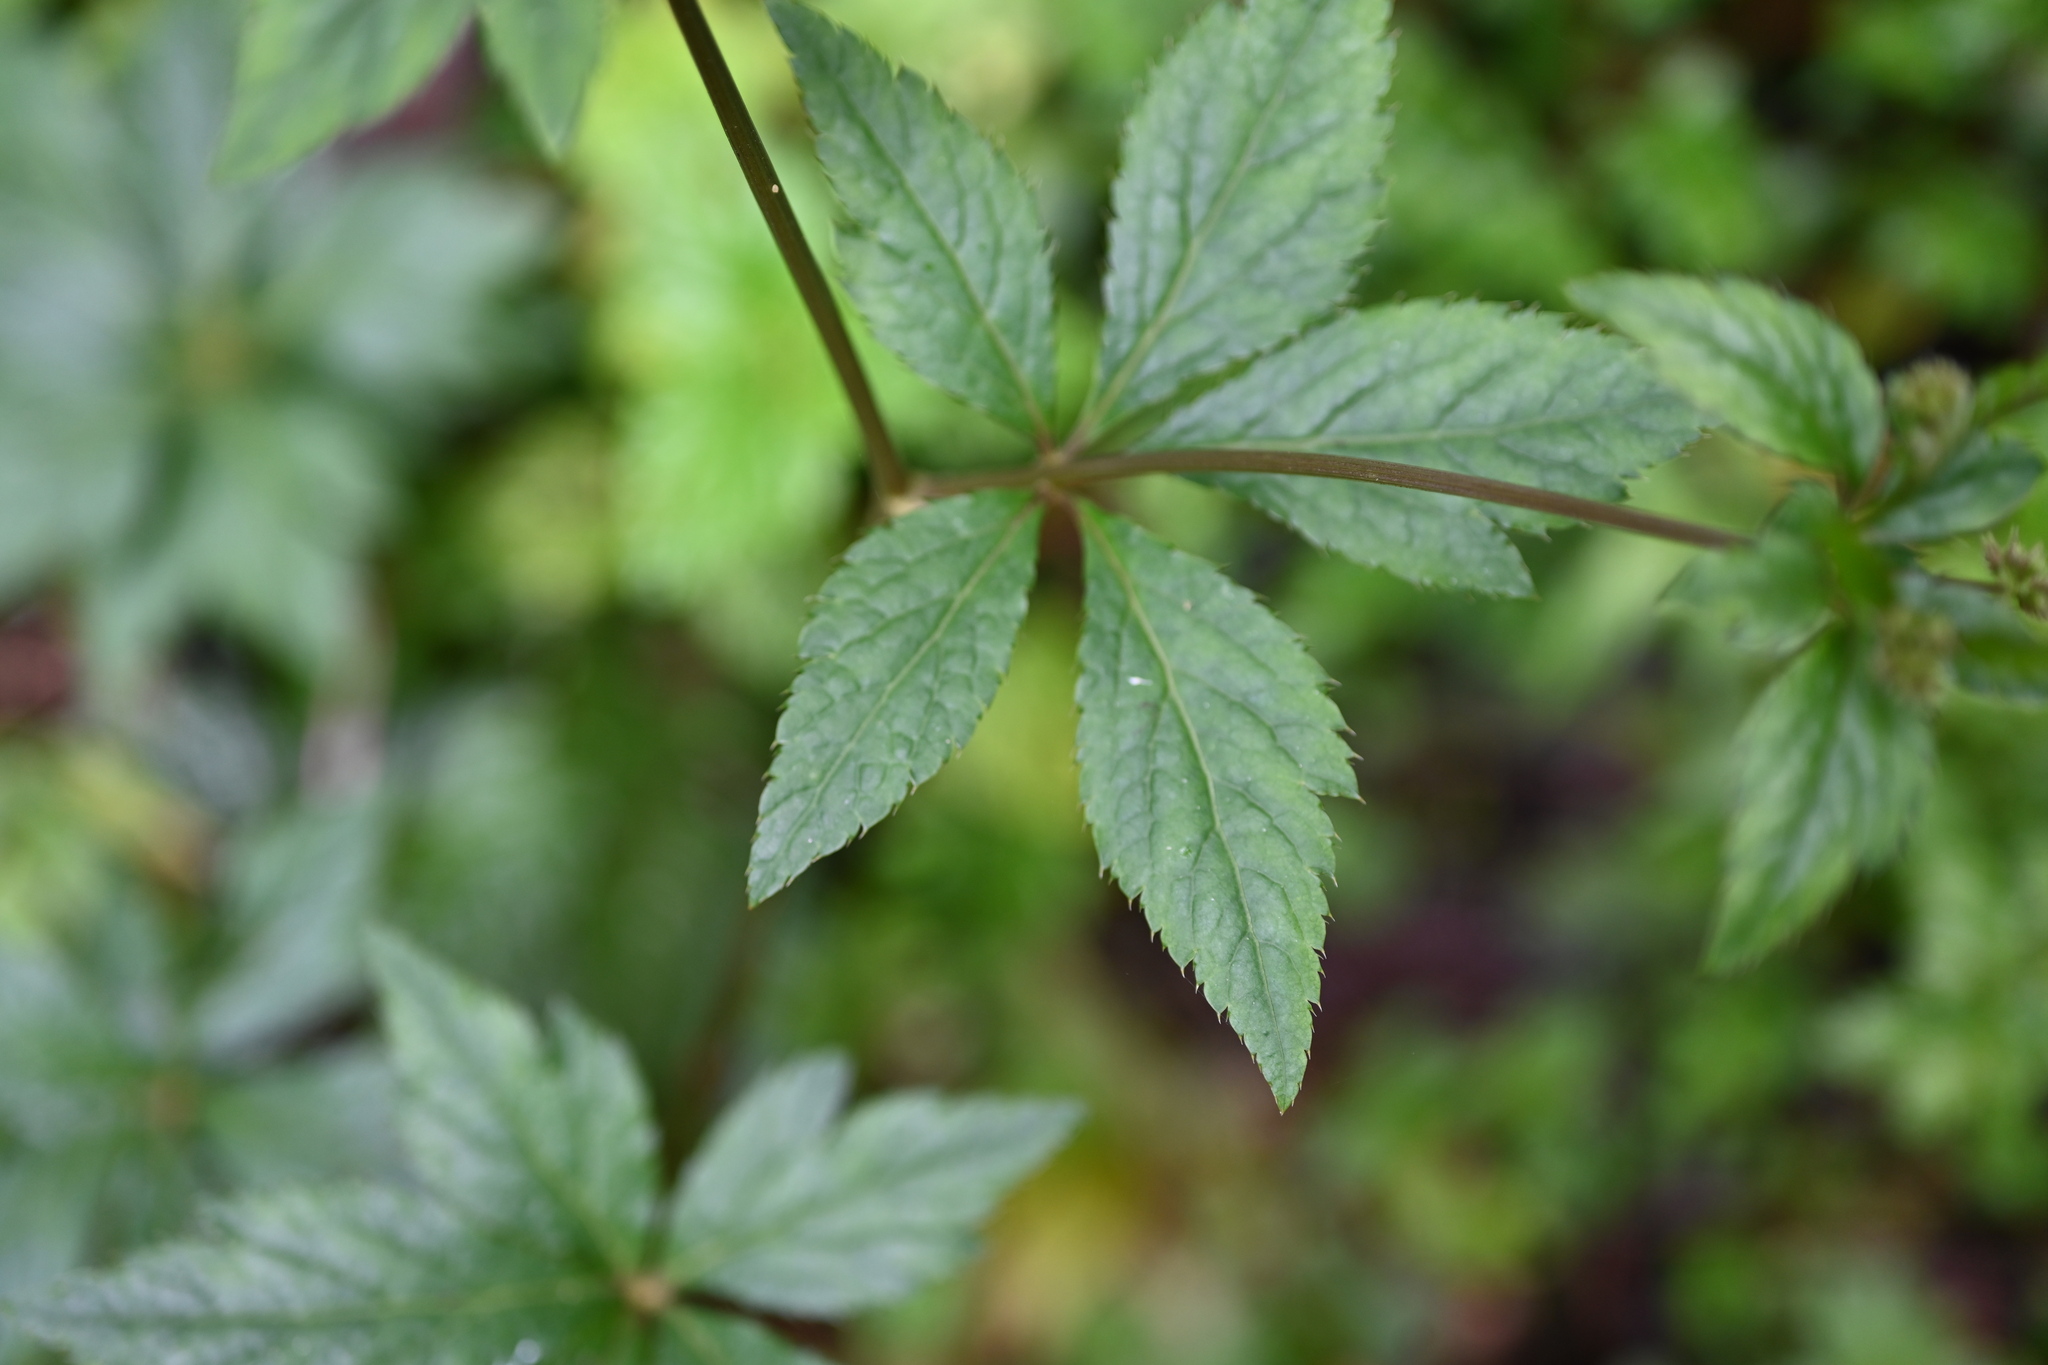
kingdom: Plantae
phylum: Tracheophyta
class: Magnoliopsida
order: Apiales
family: Apiaceae
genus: Sanicula
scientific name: Sanicula liberta
